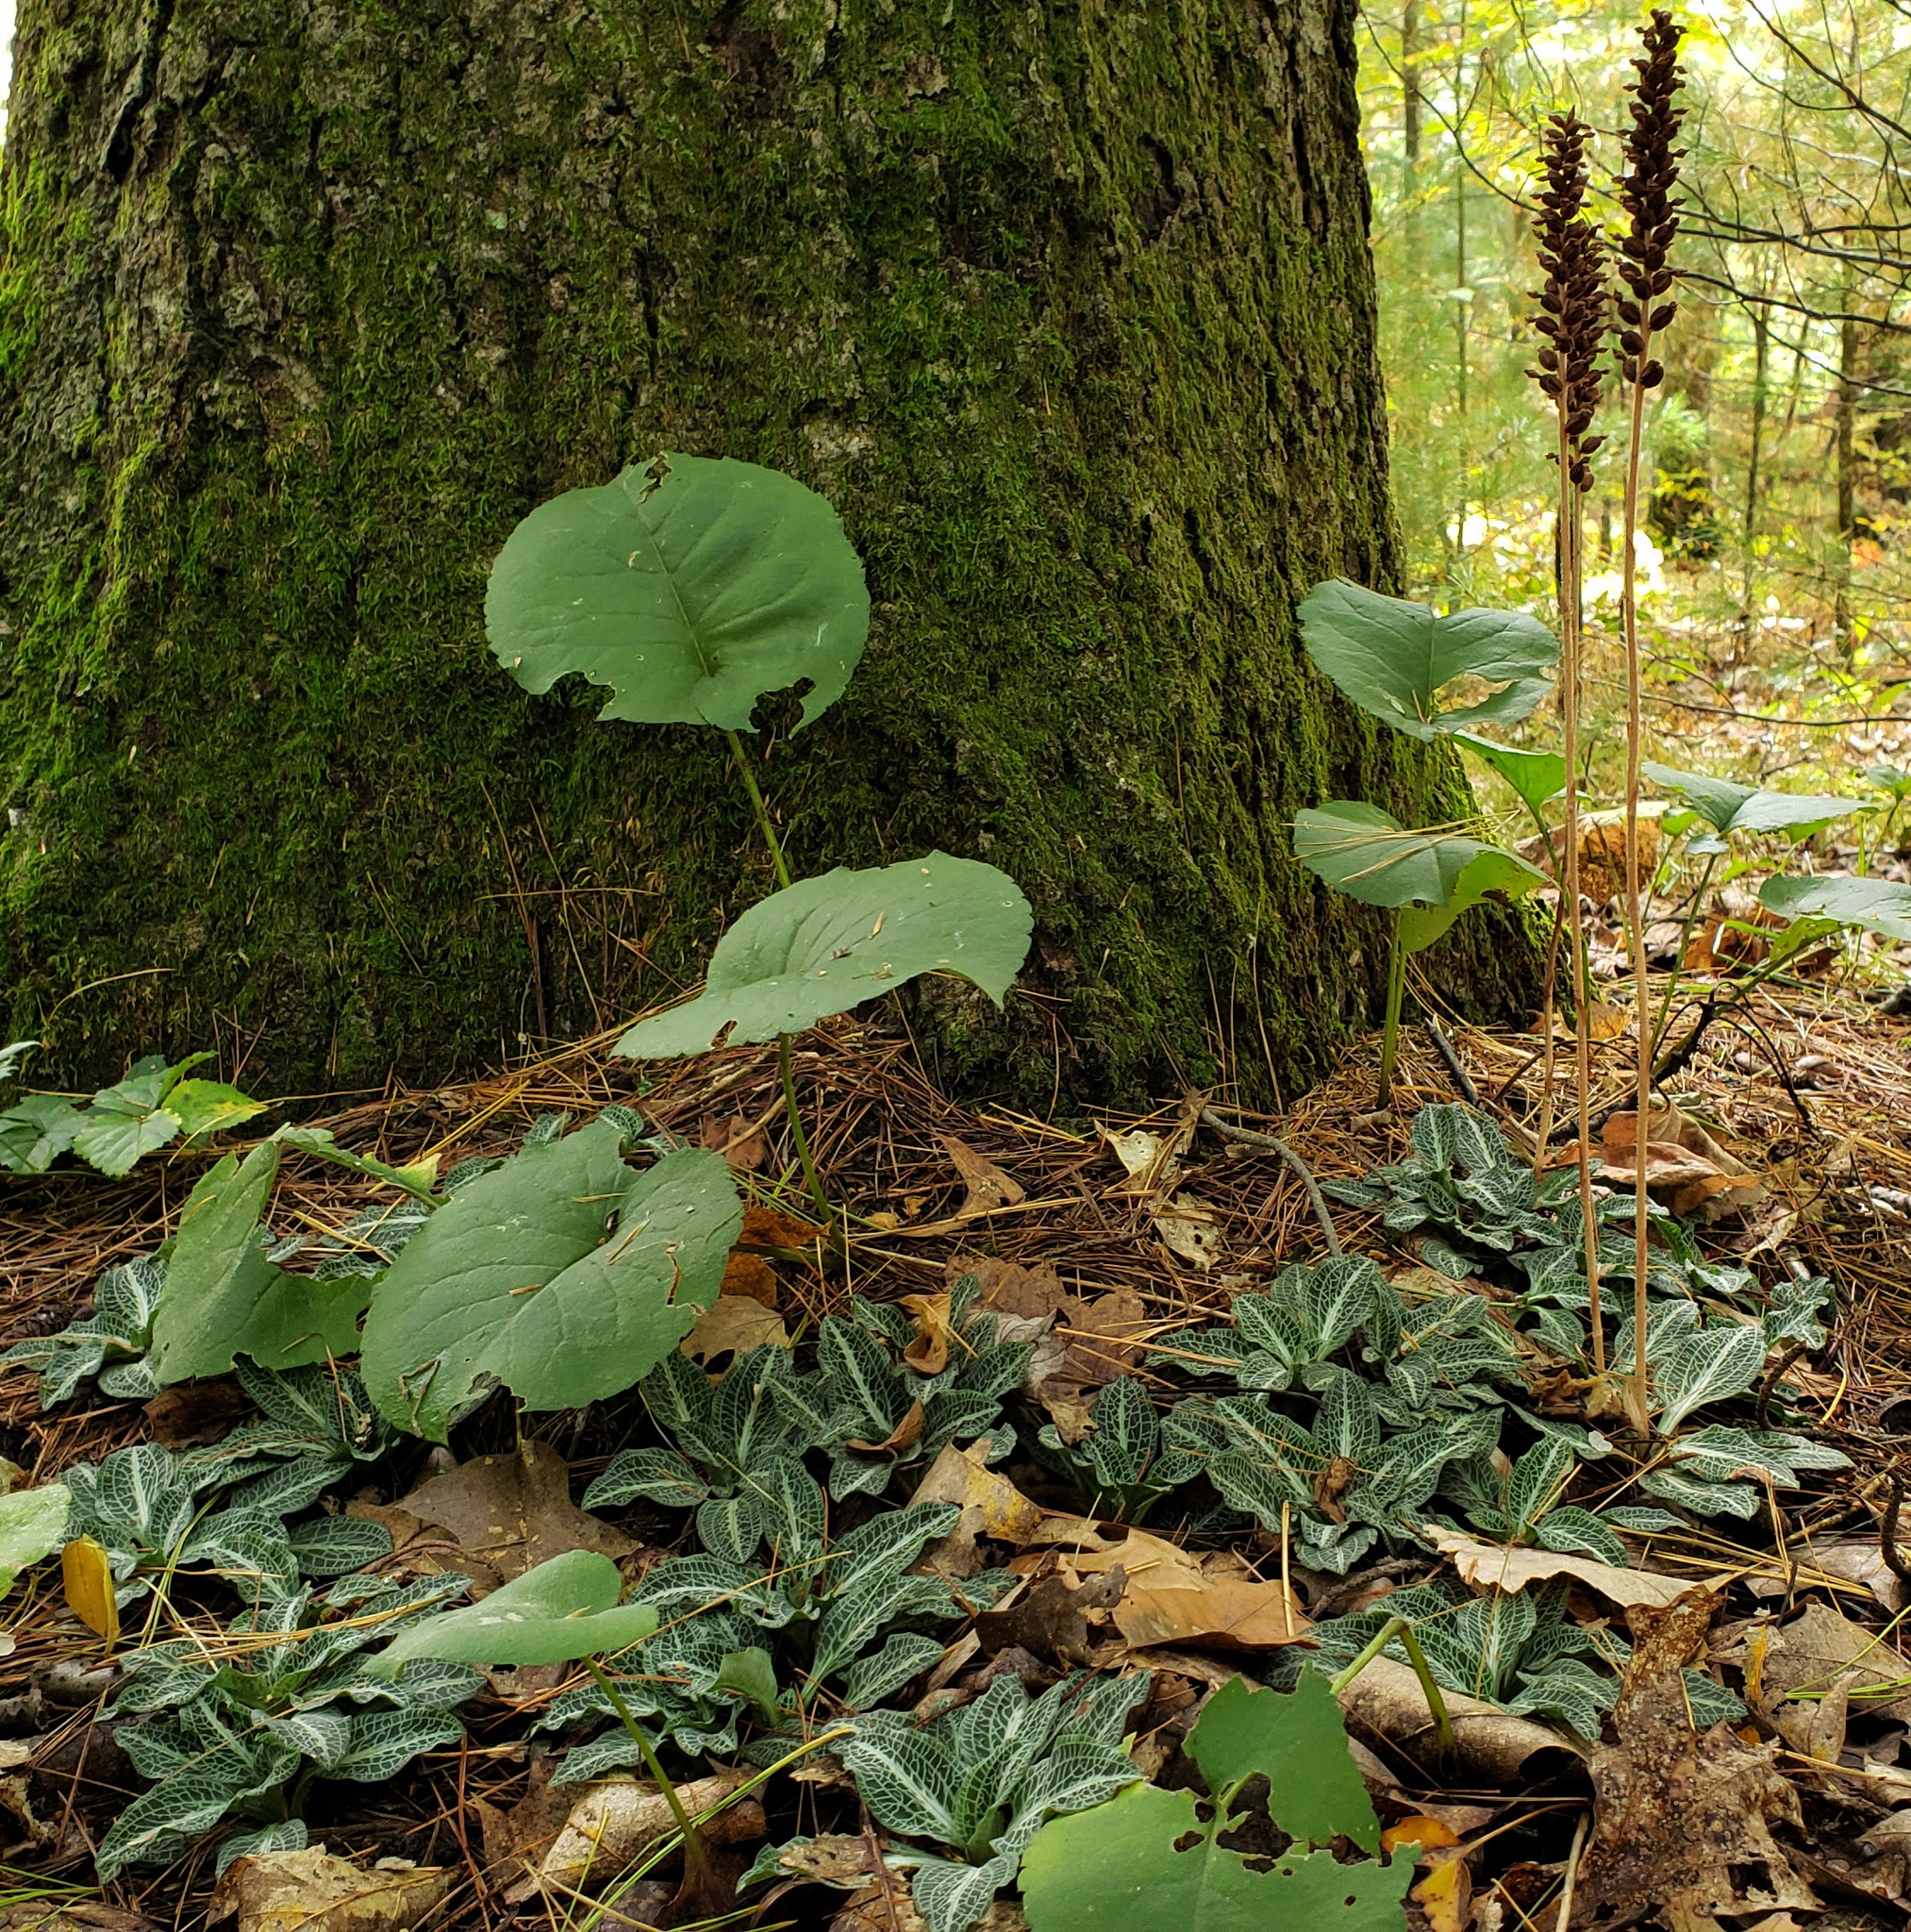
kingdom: Plantae
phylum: Tracheophyta
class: Liliopsida
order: Asparagales
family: Orchidaceae
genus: Goodyera
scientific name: Goodyera pubescens
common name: Downy rattlesnake-plantain
